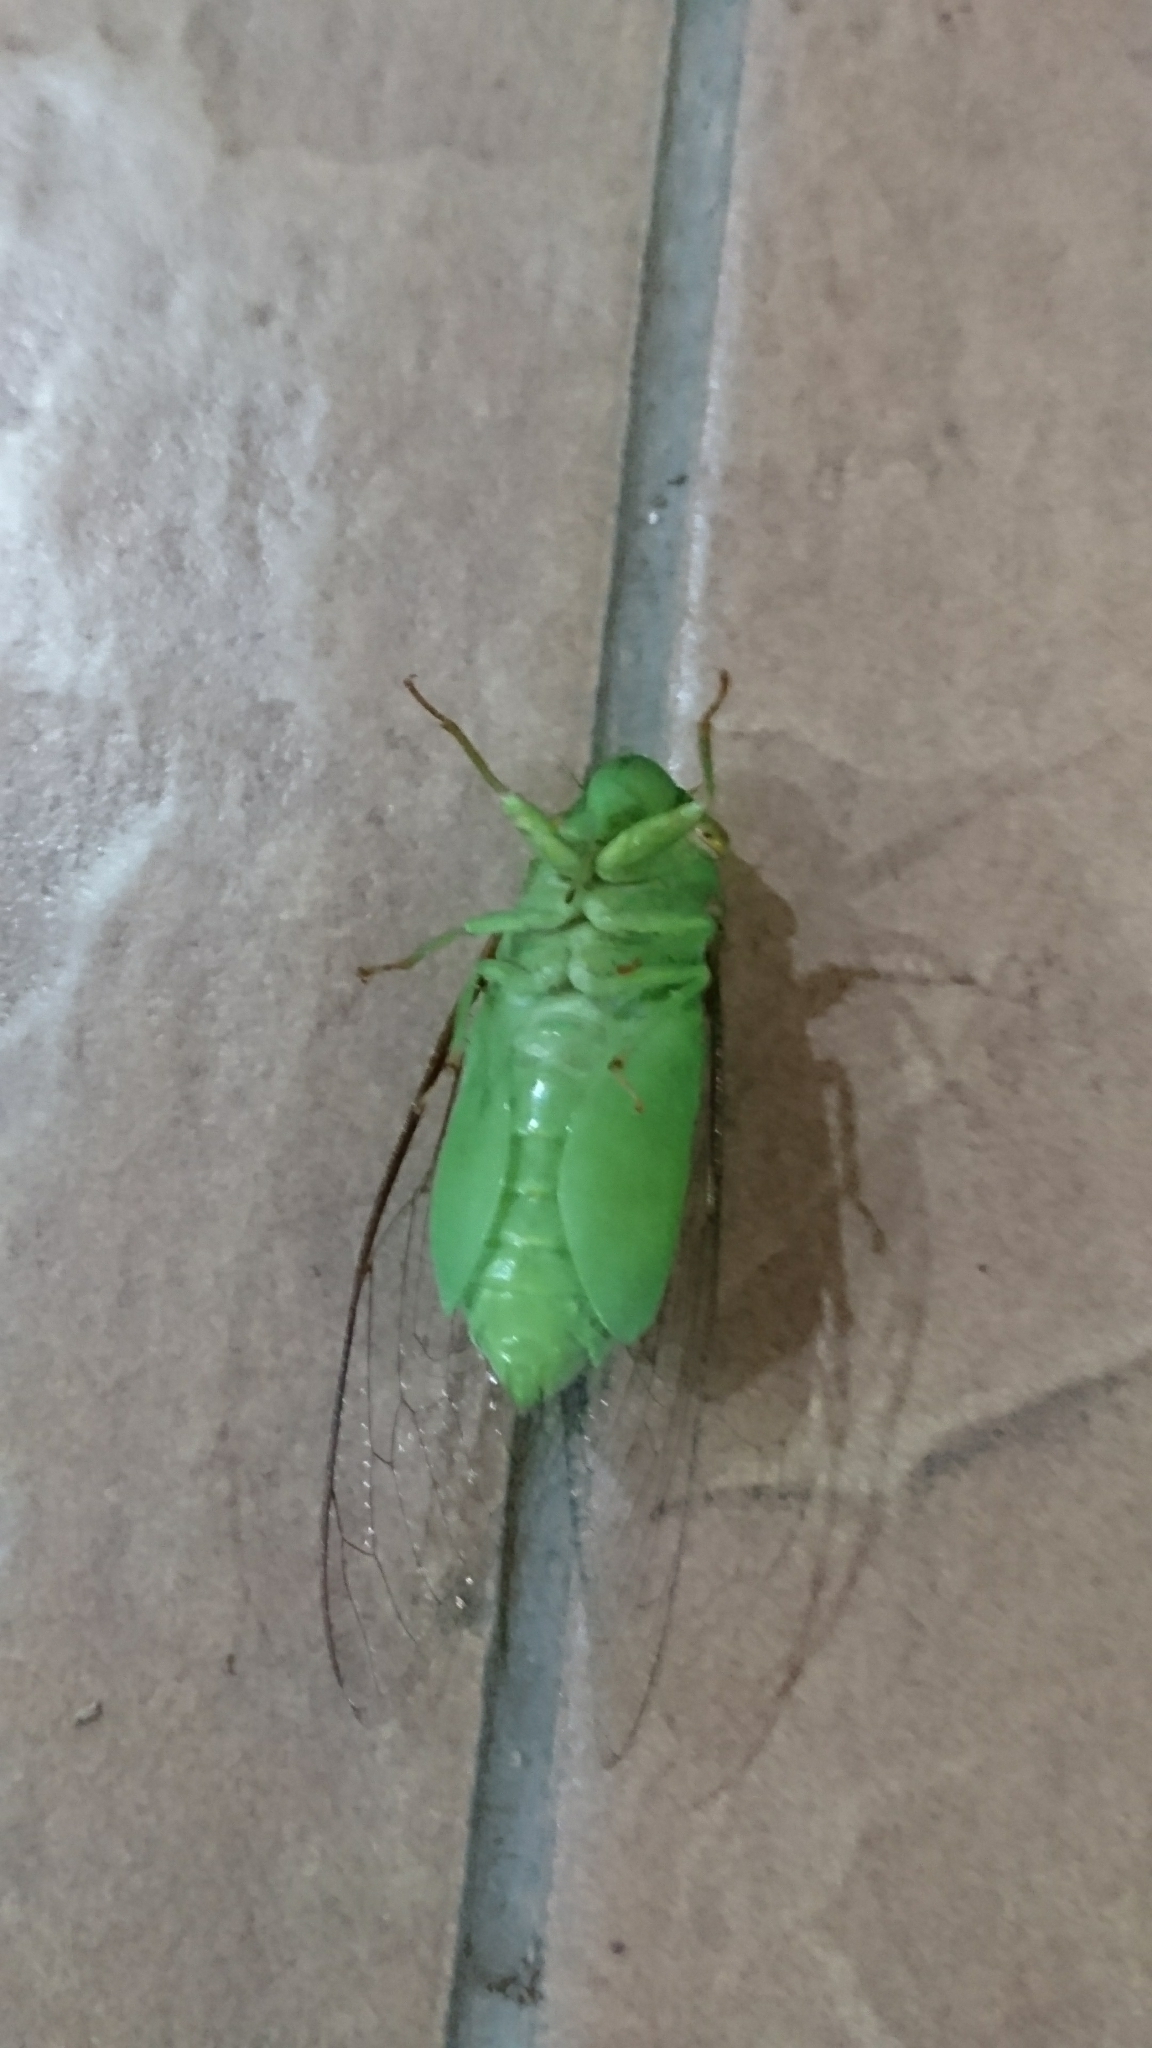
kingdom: Animalia
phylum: Arthropoda
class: Insecta
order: Hemiptera
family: Cicadidae
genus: Dundubia
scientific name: Dundubia vaginata
